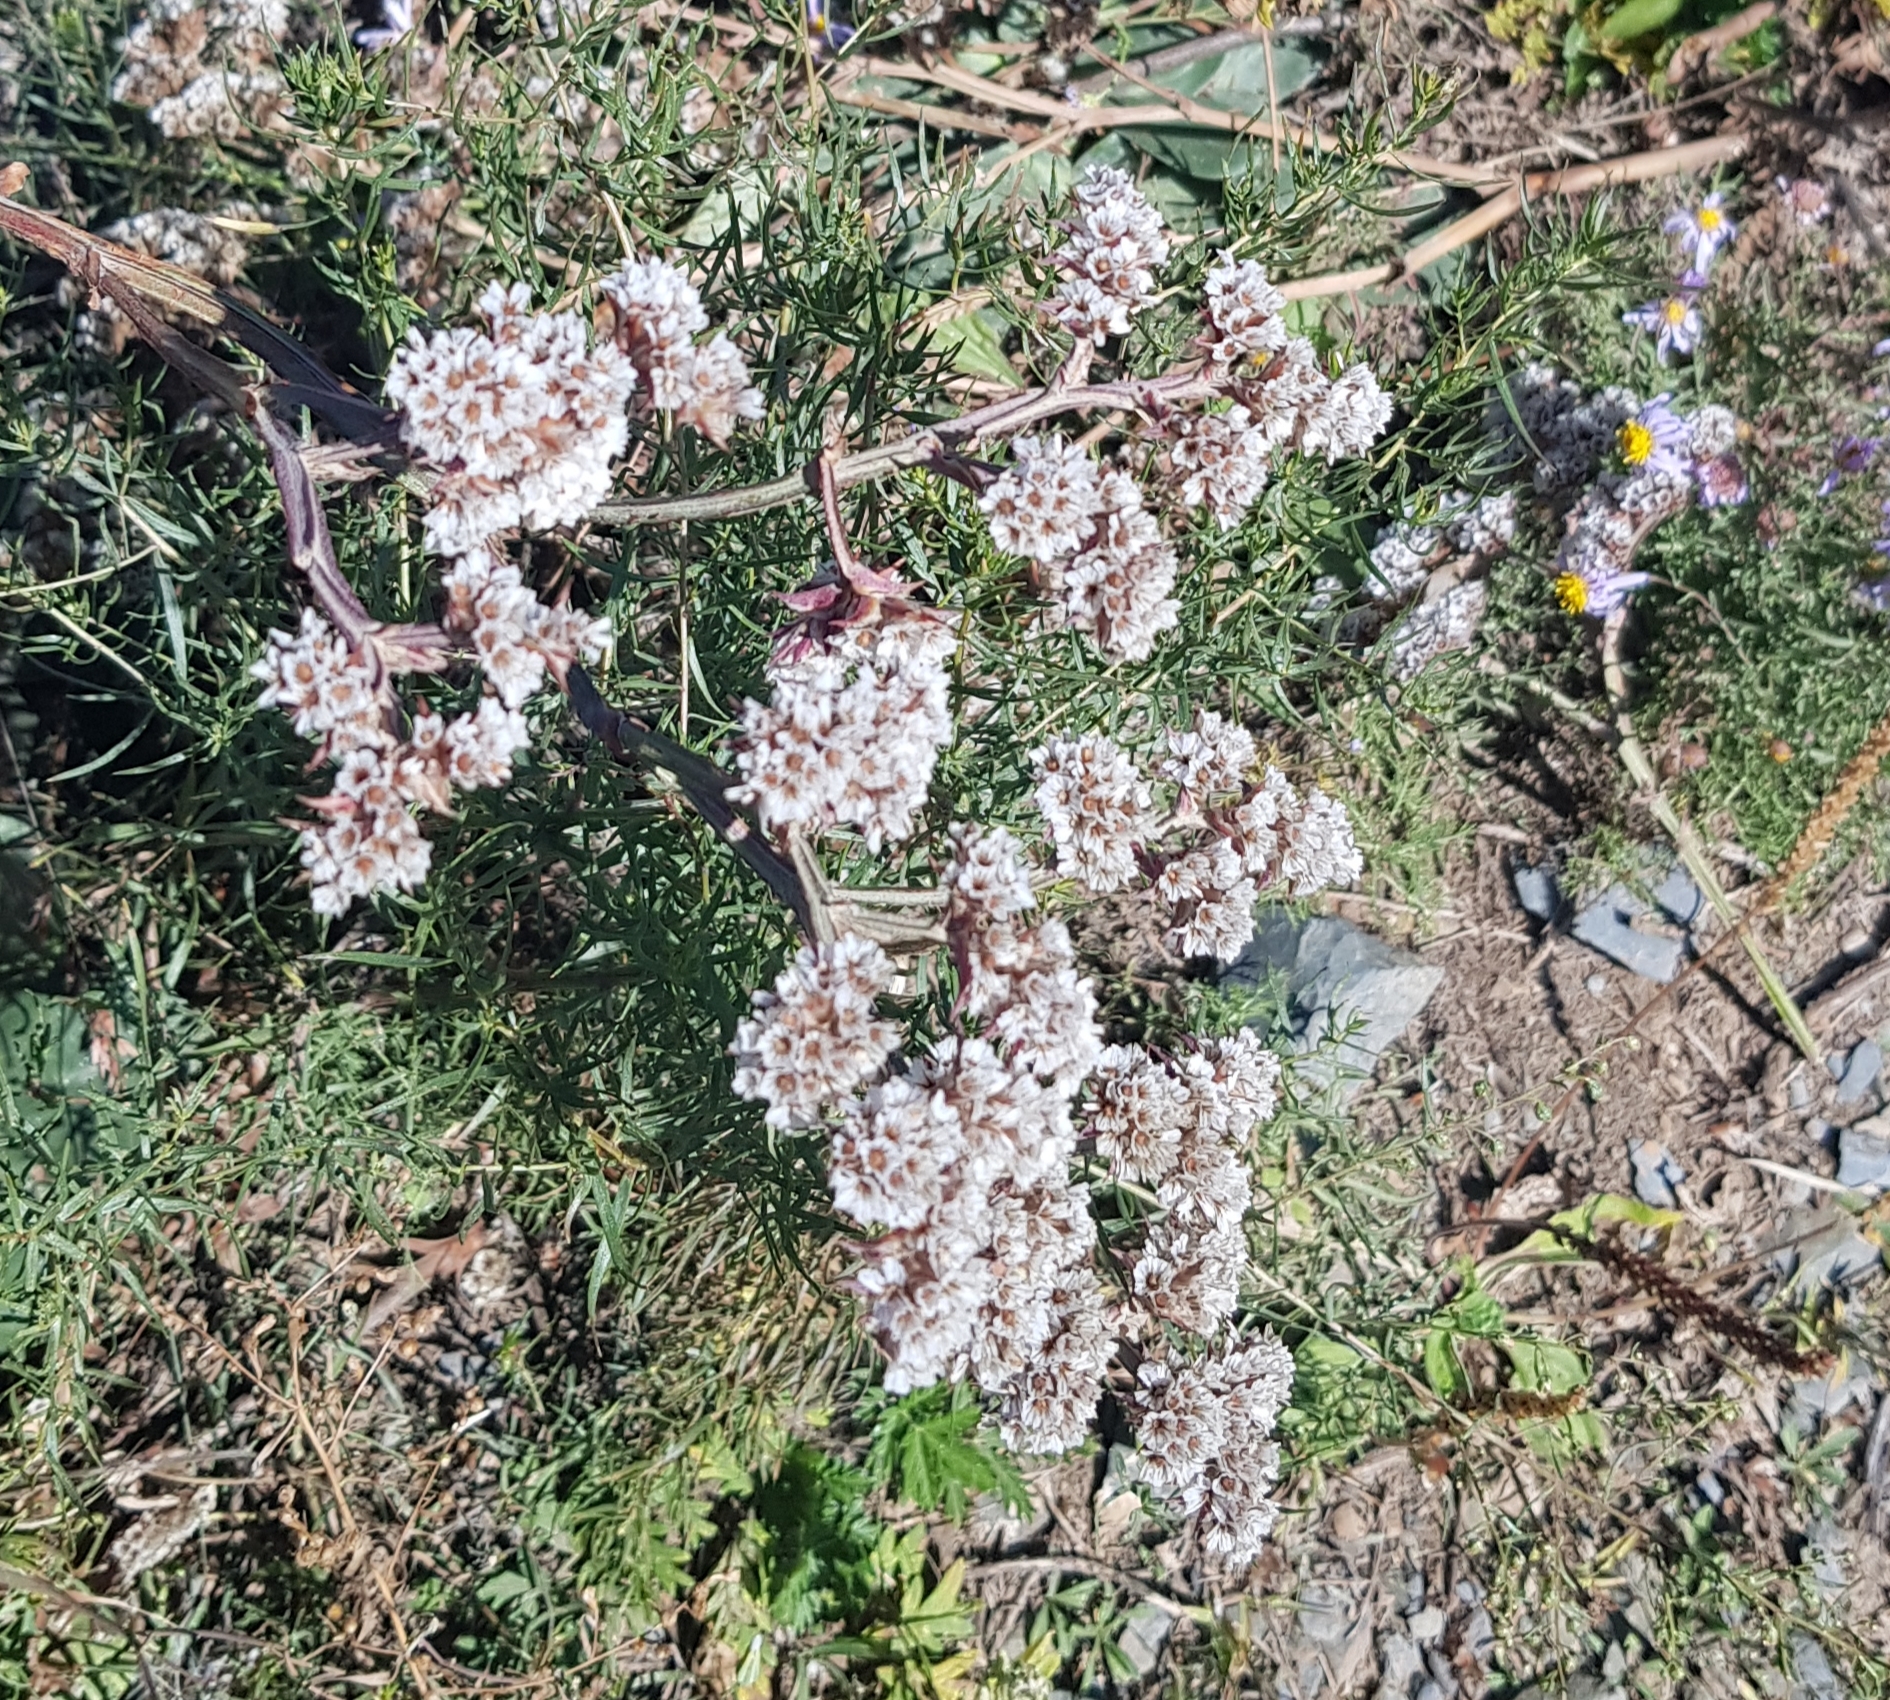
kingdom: Plantae
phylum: Tracheophyta
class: Magnoliopsida
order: Caryophyllales
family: Plumbaginaceae
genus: Goniolimon
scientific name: Goniolimon speciosum
